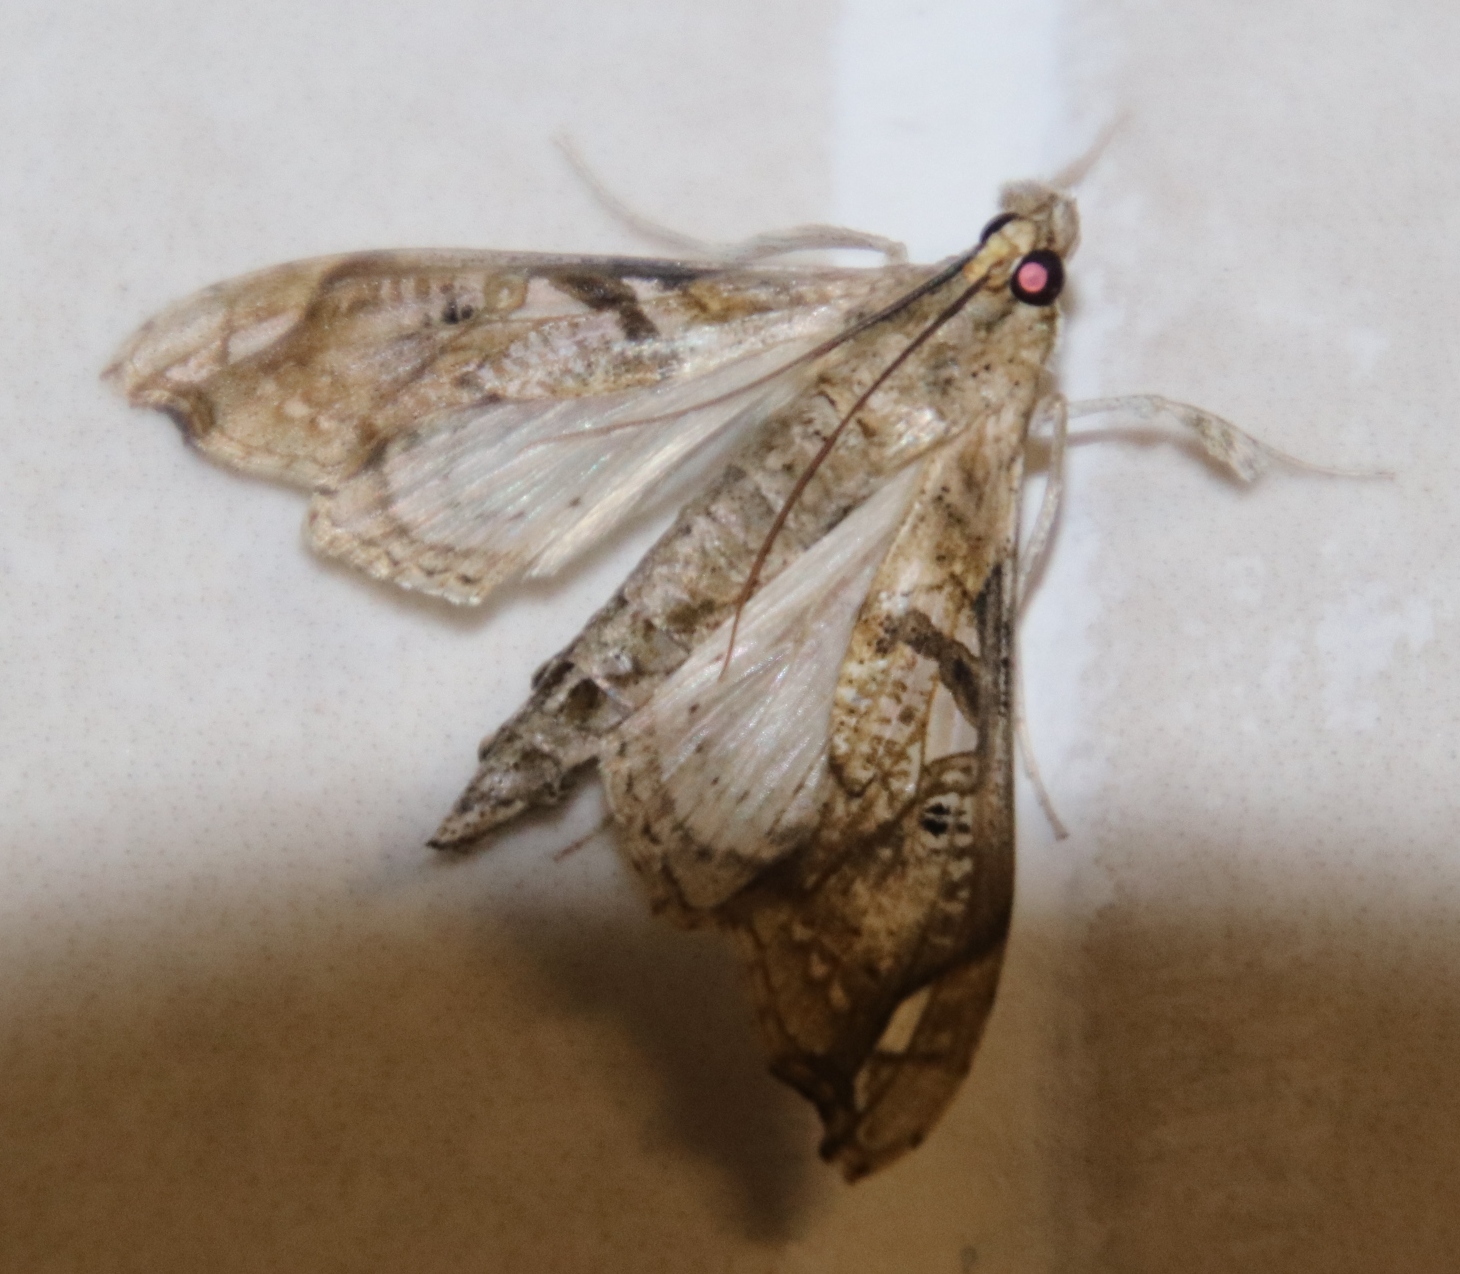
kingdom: Animalia
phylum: Arthropoda
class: Insecta
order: Lepidoptera
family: Crambidae
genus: Terastia
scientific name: Terastia africana
